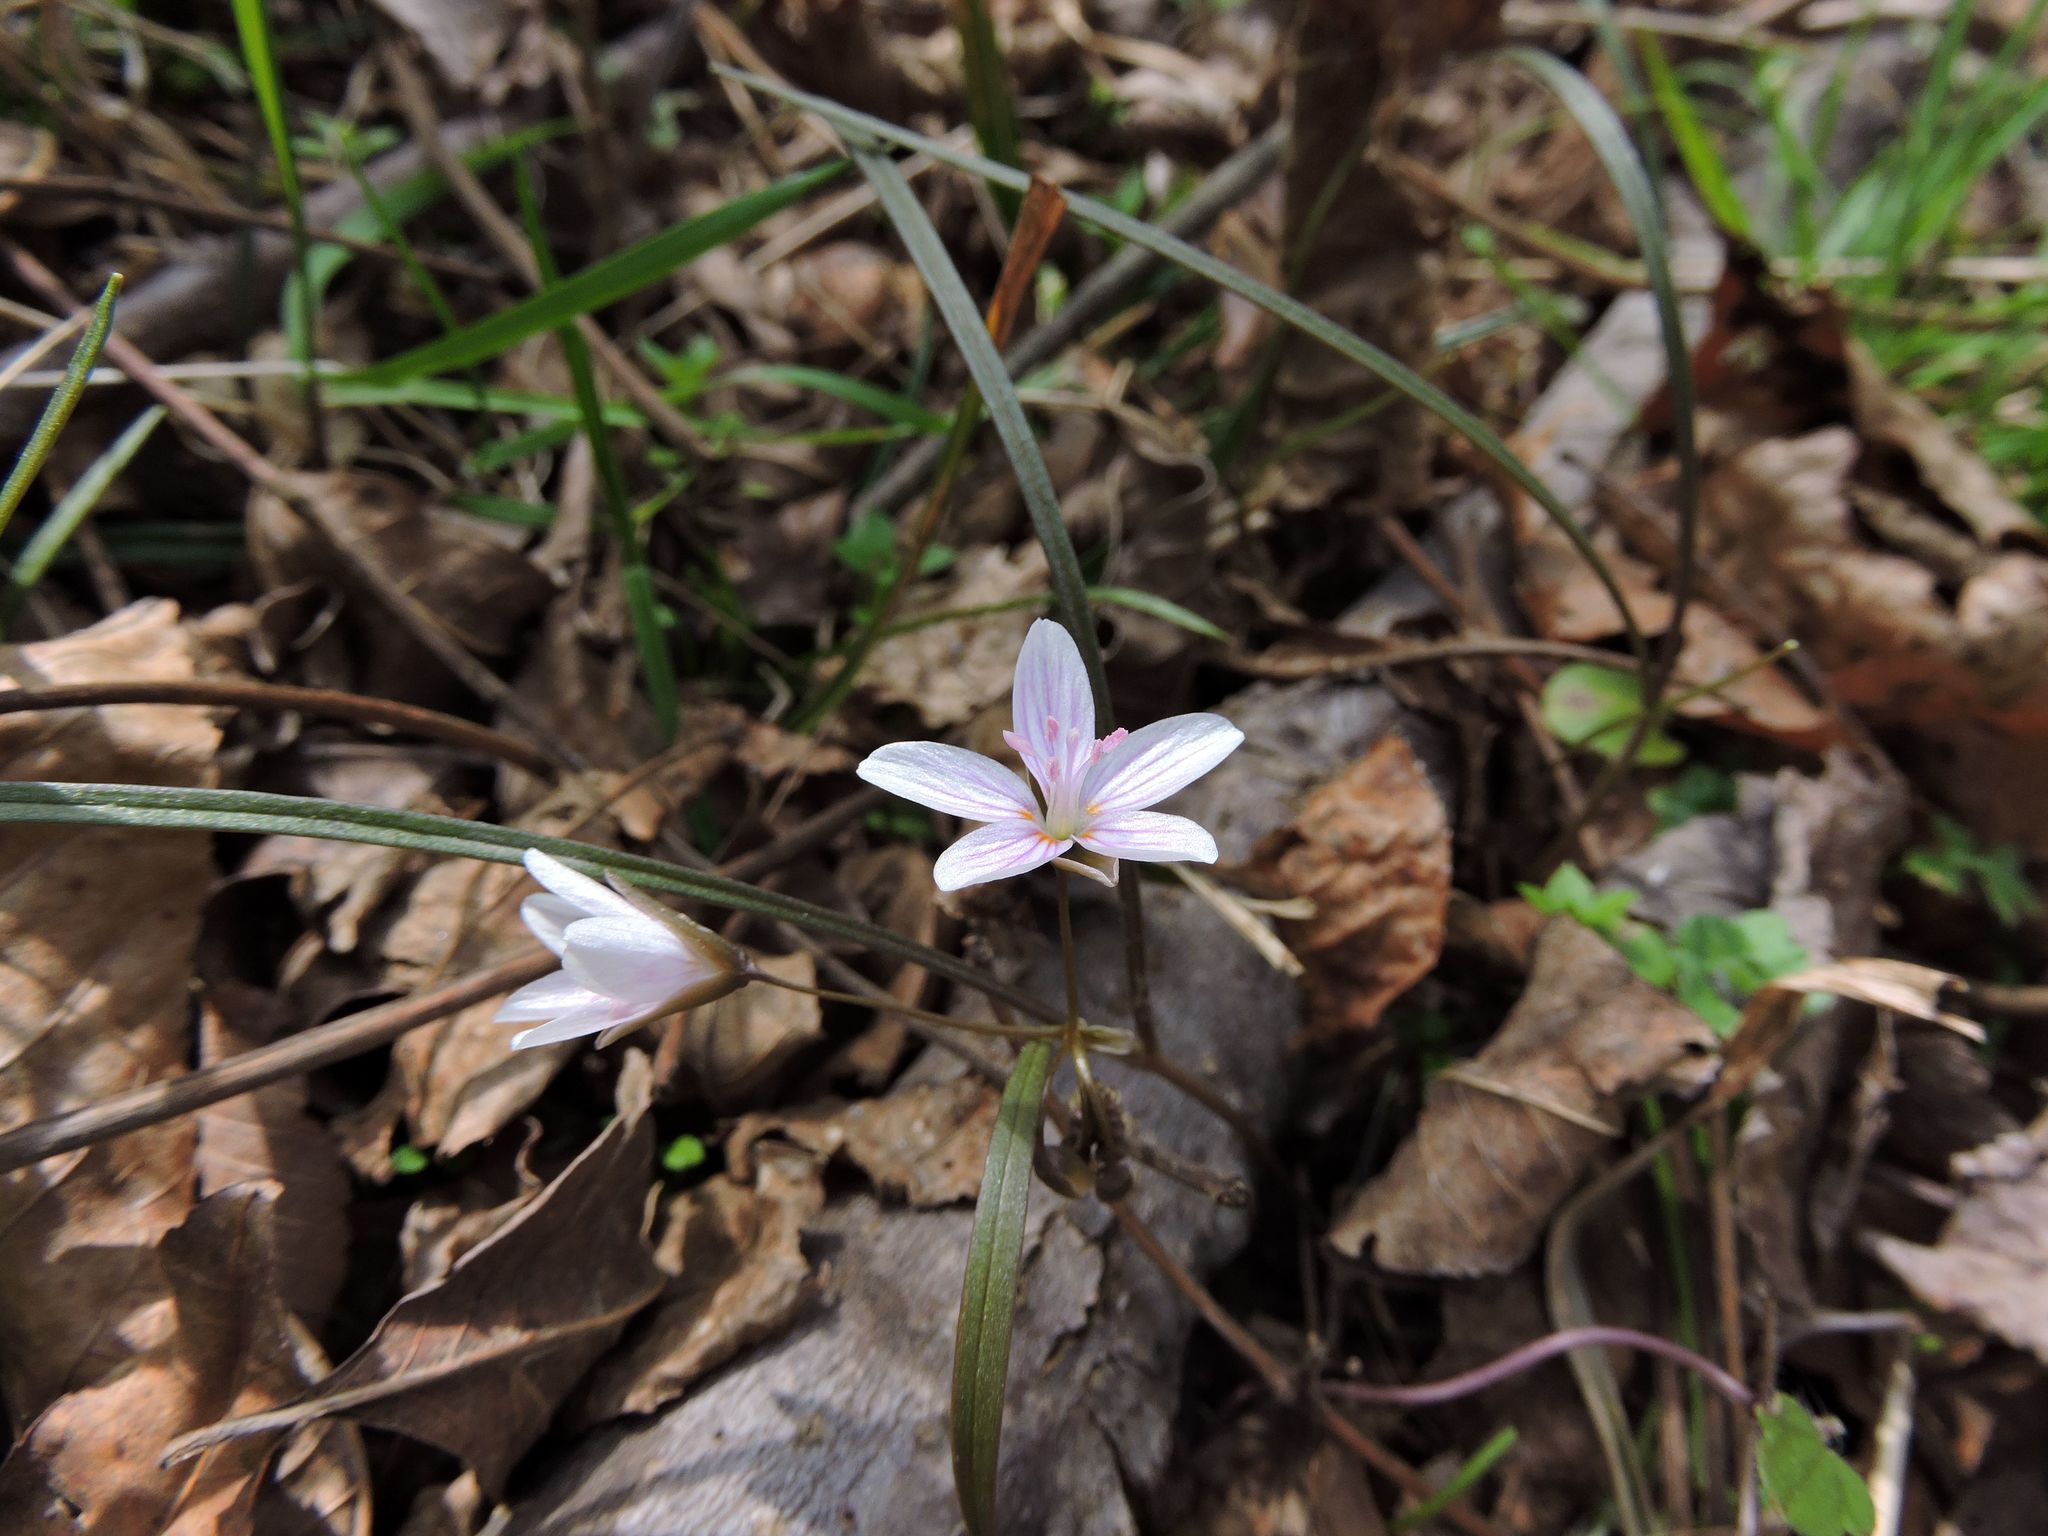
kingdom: Plantae
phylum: Tracheophyta
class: Magnoliopsida
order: Caryophyllales
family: Montiaceae
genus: Claytonia
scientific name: Claytonia virginica
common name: Virginia springbeauty
